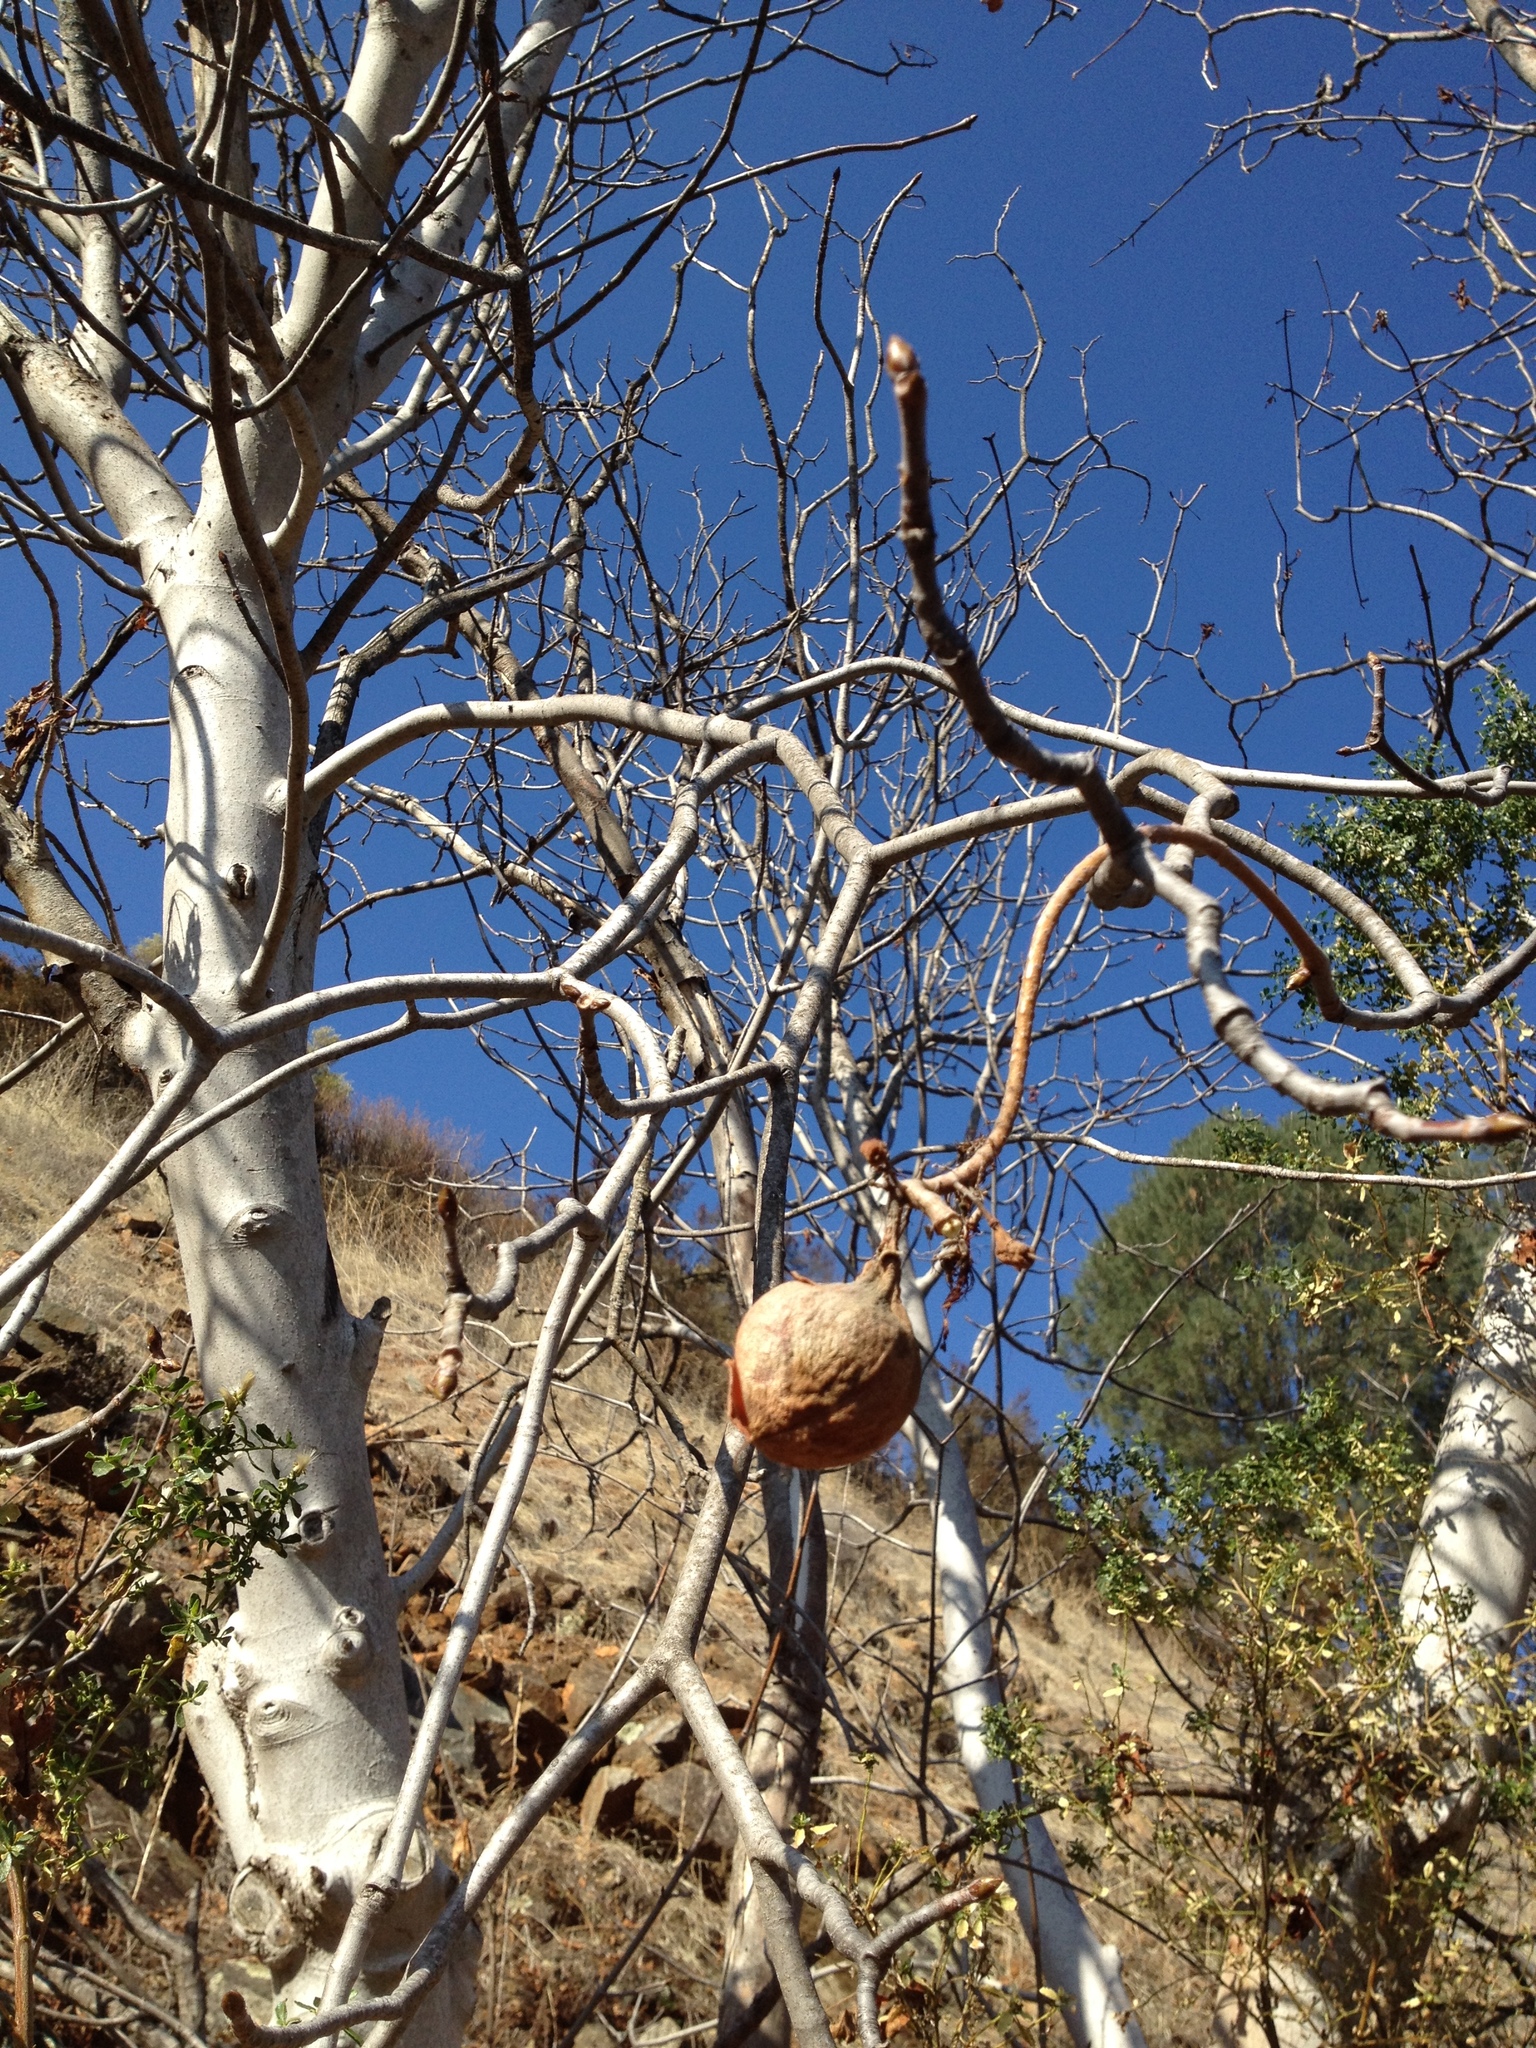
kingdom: Plantae
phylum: Tracheophyta
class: Magnoliopsida
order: Sapindales
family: Sapindaceae
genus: Aesculus
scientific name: Aesculus californica
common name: California buckeye
